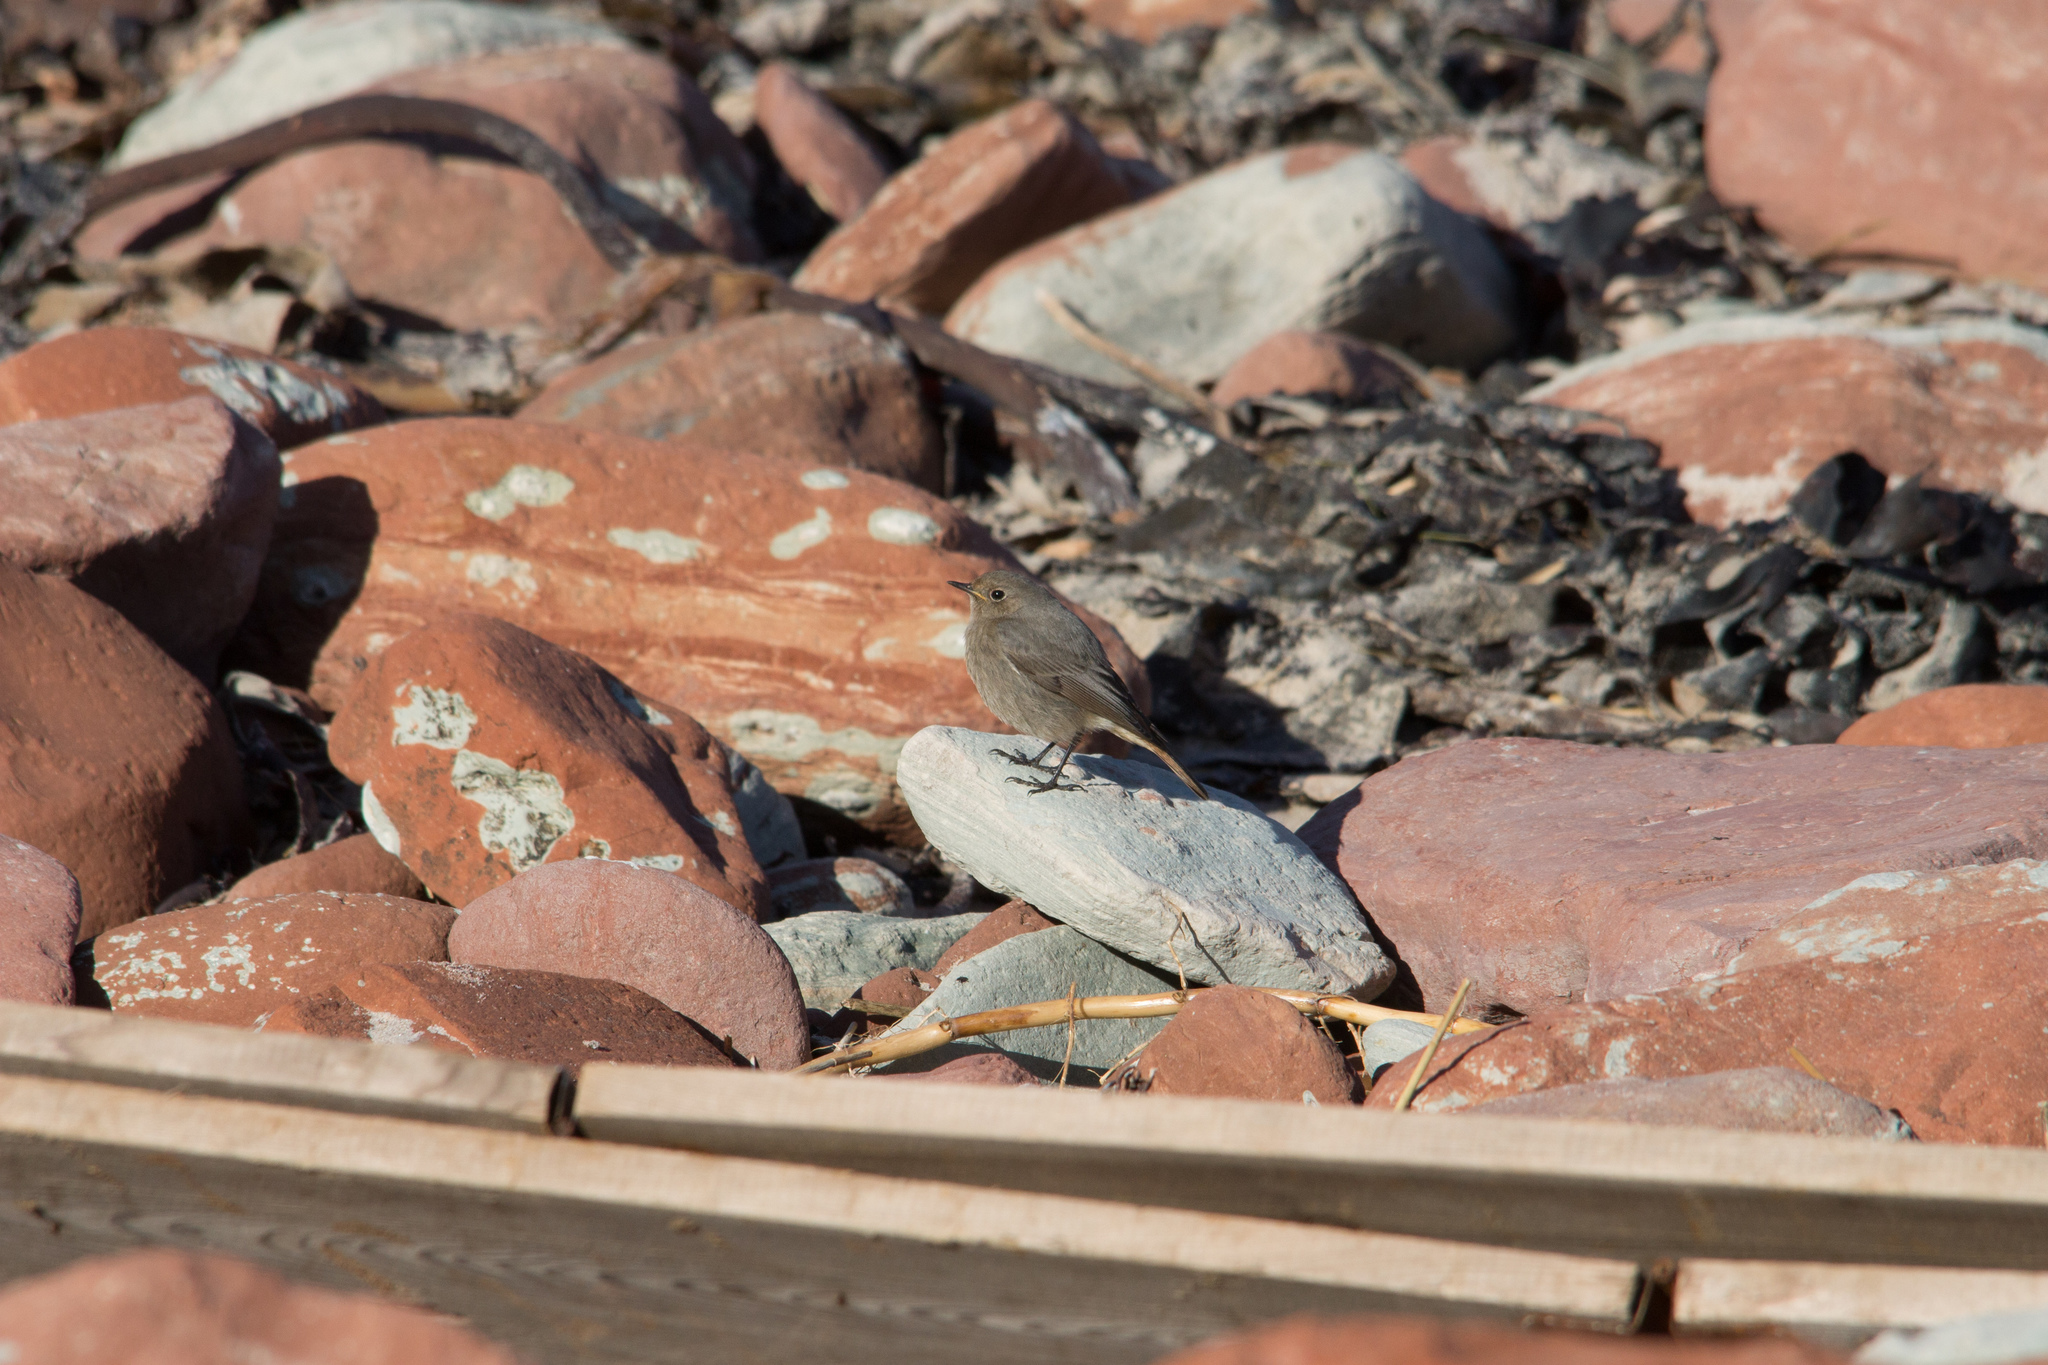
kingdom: Animalia
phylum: Chordata
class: Aves
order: Passeriformes
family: Muscicapidae
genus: Phoenicurus
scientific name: Phoenicurus ochruros
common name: Black redstart
